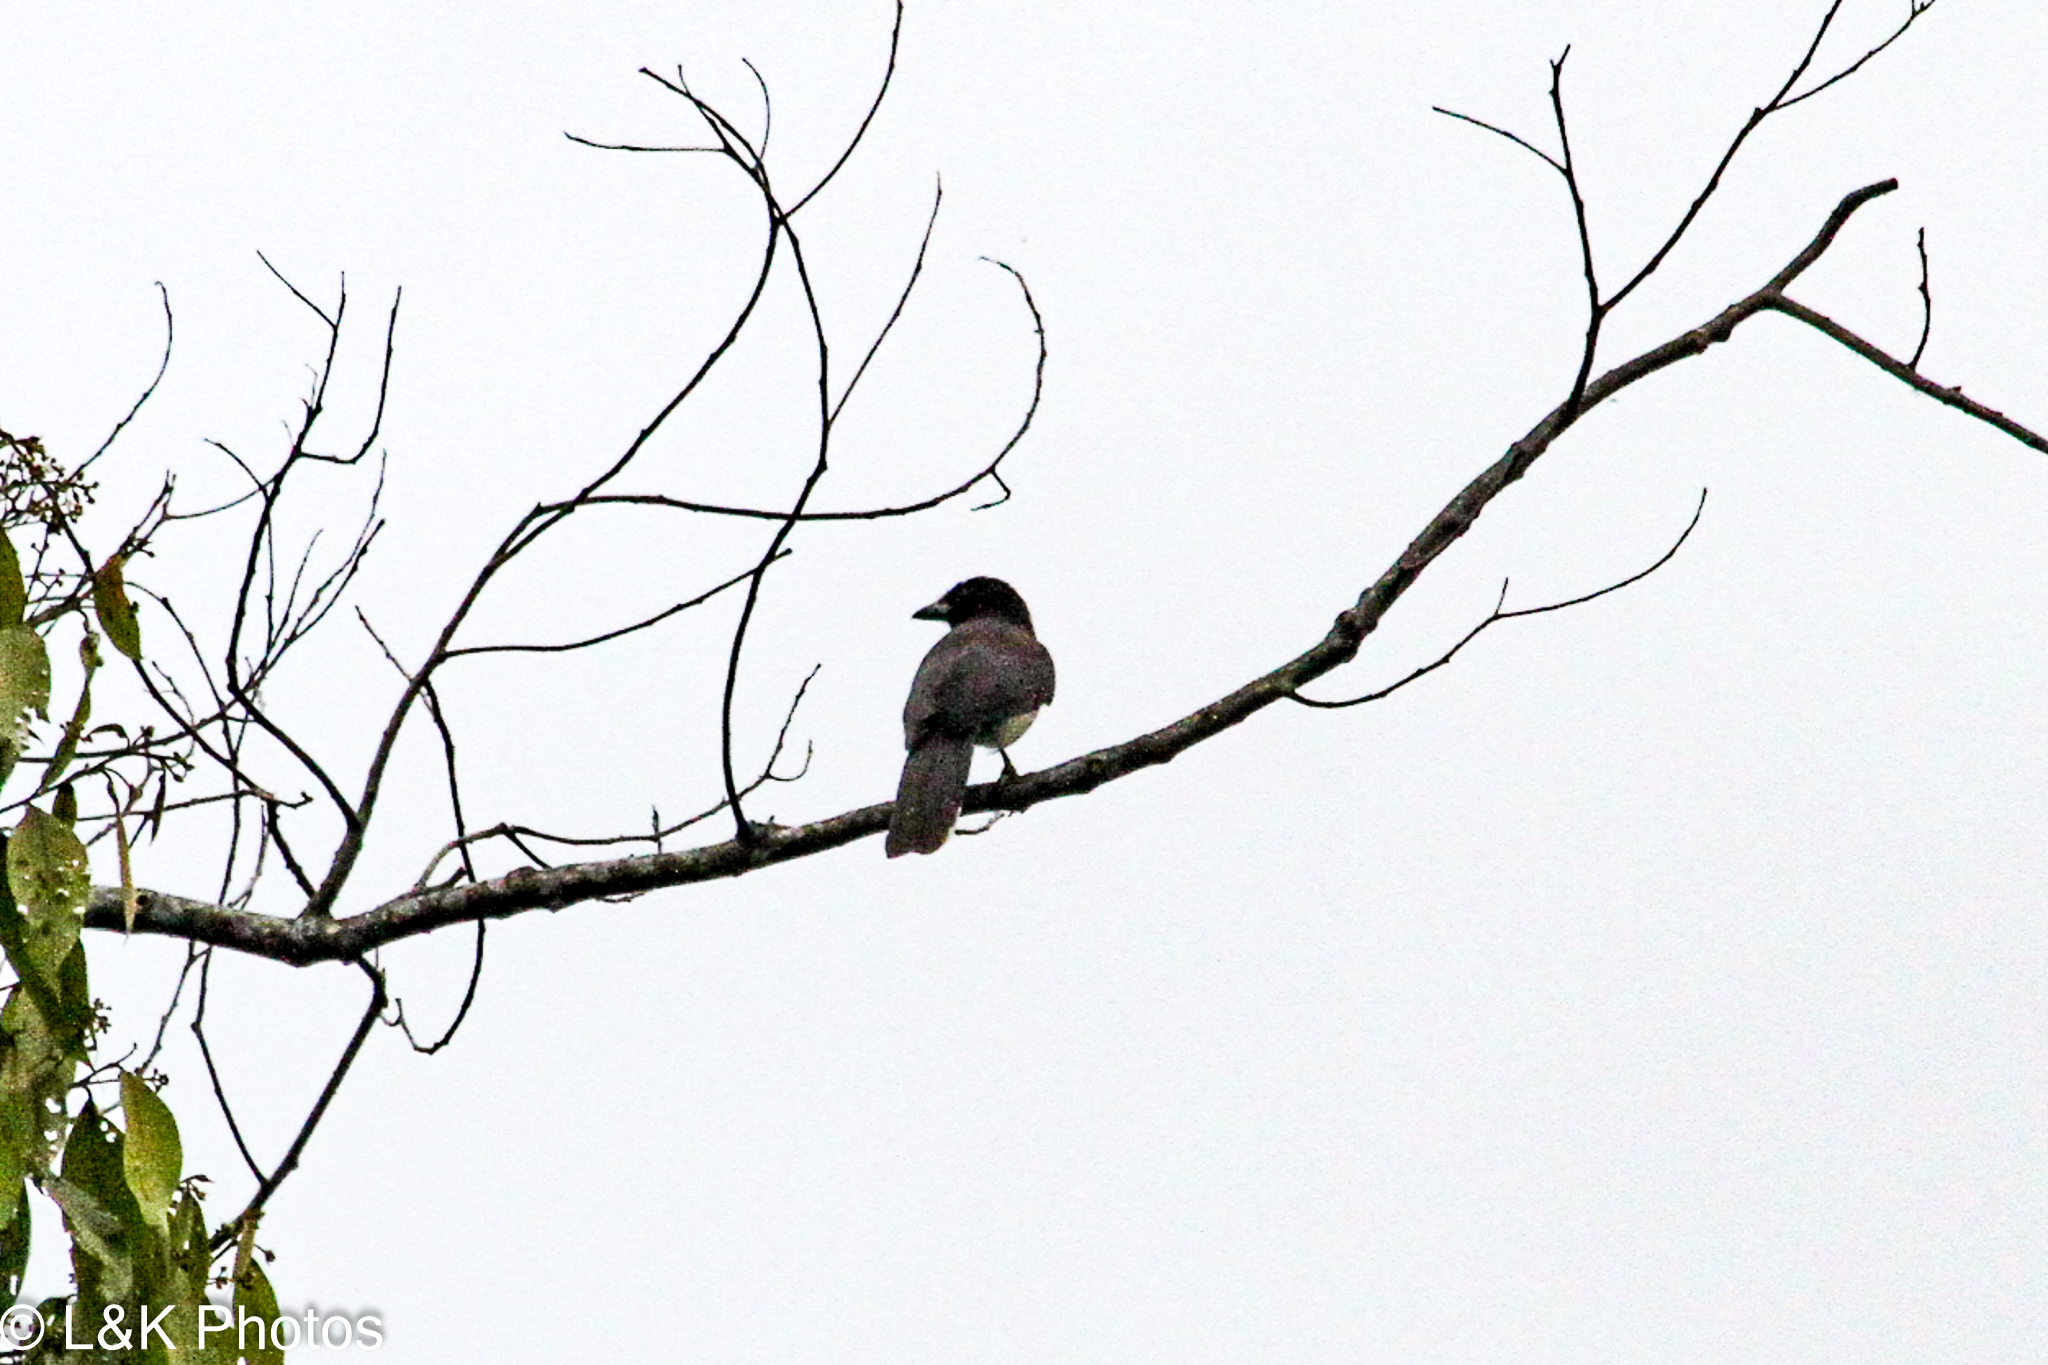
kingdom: Animalia
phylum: Chordata
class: Aves
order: Passeriformes
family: Corvidae
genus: Psilorhinus
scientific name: Psilorhinus morio
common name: Brown jay
